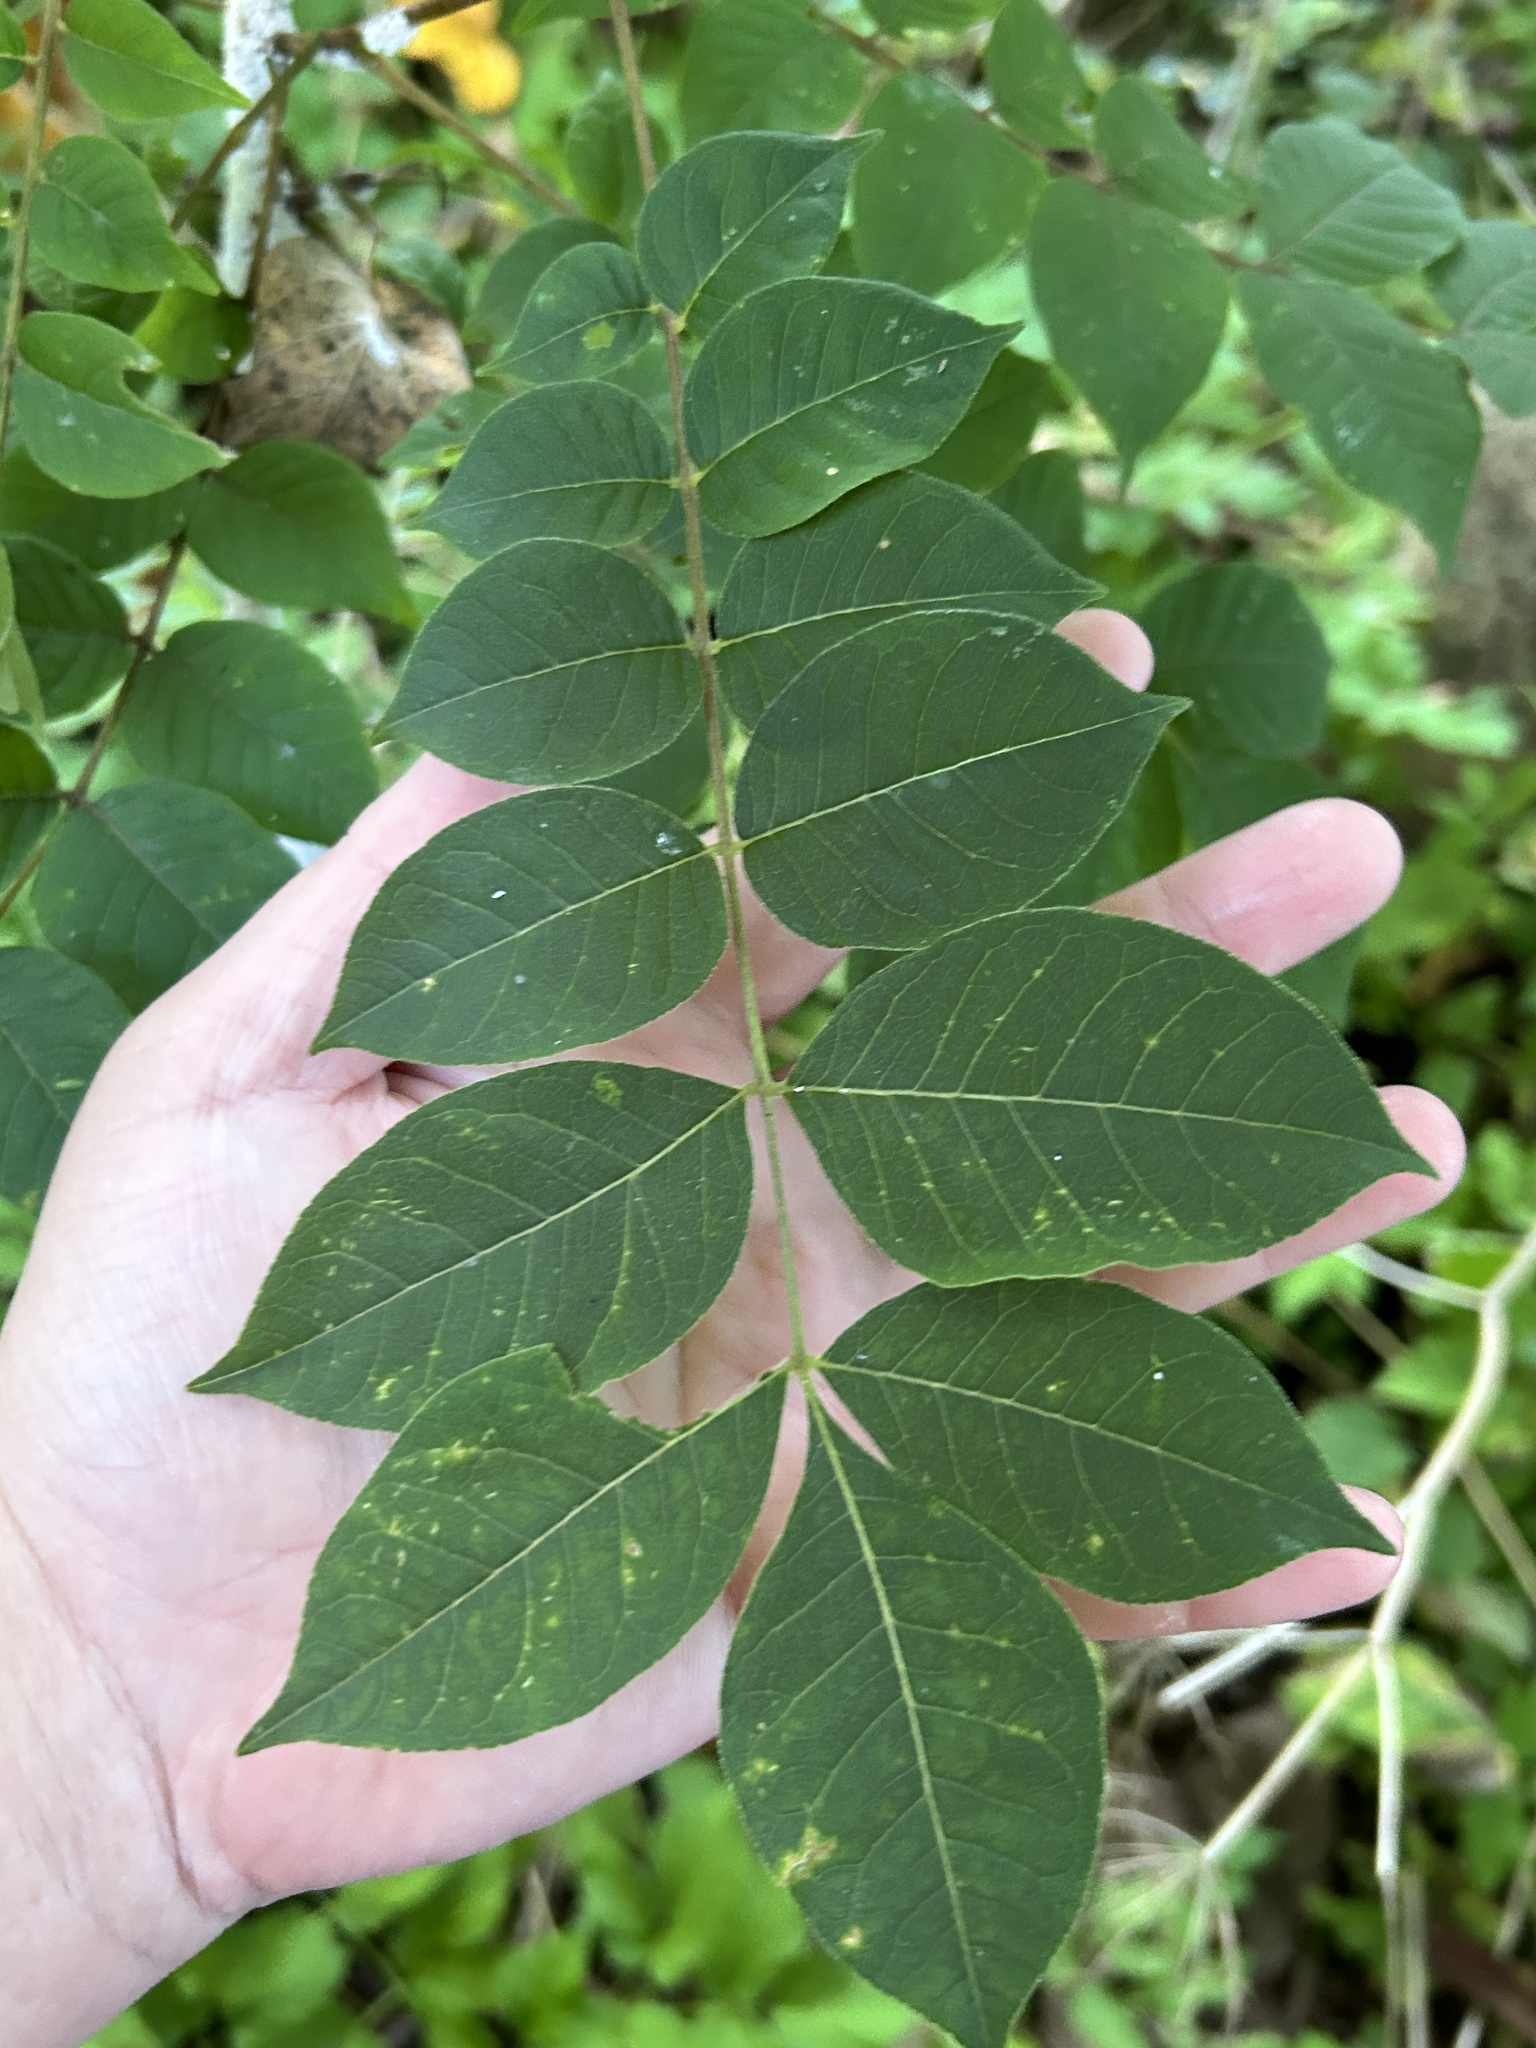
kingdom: Plantae
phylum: Tracheophyta
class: Magnoliopsida
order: Sapindales
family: Rutaceae
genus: Phellodendron
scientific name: Phellodendron amurense
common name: Amur corktree
